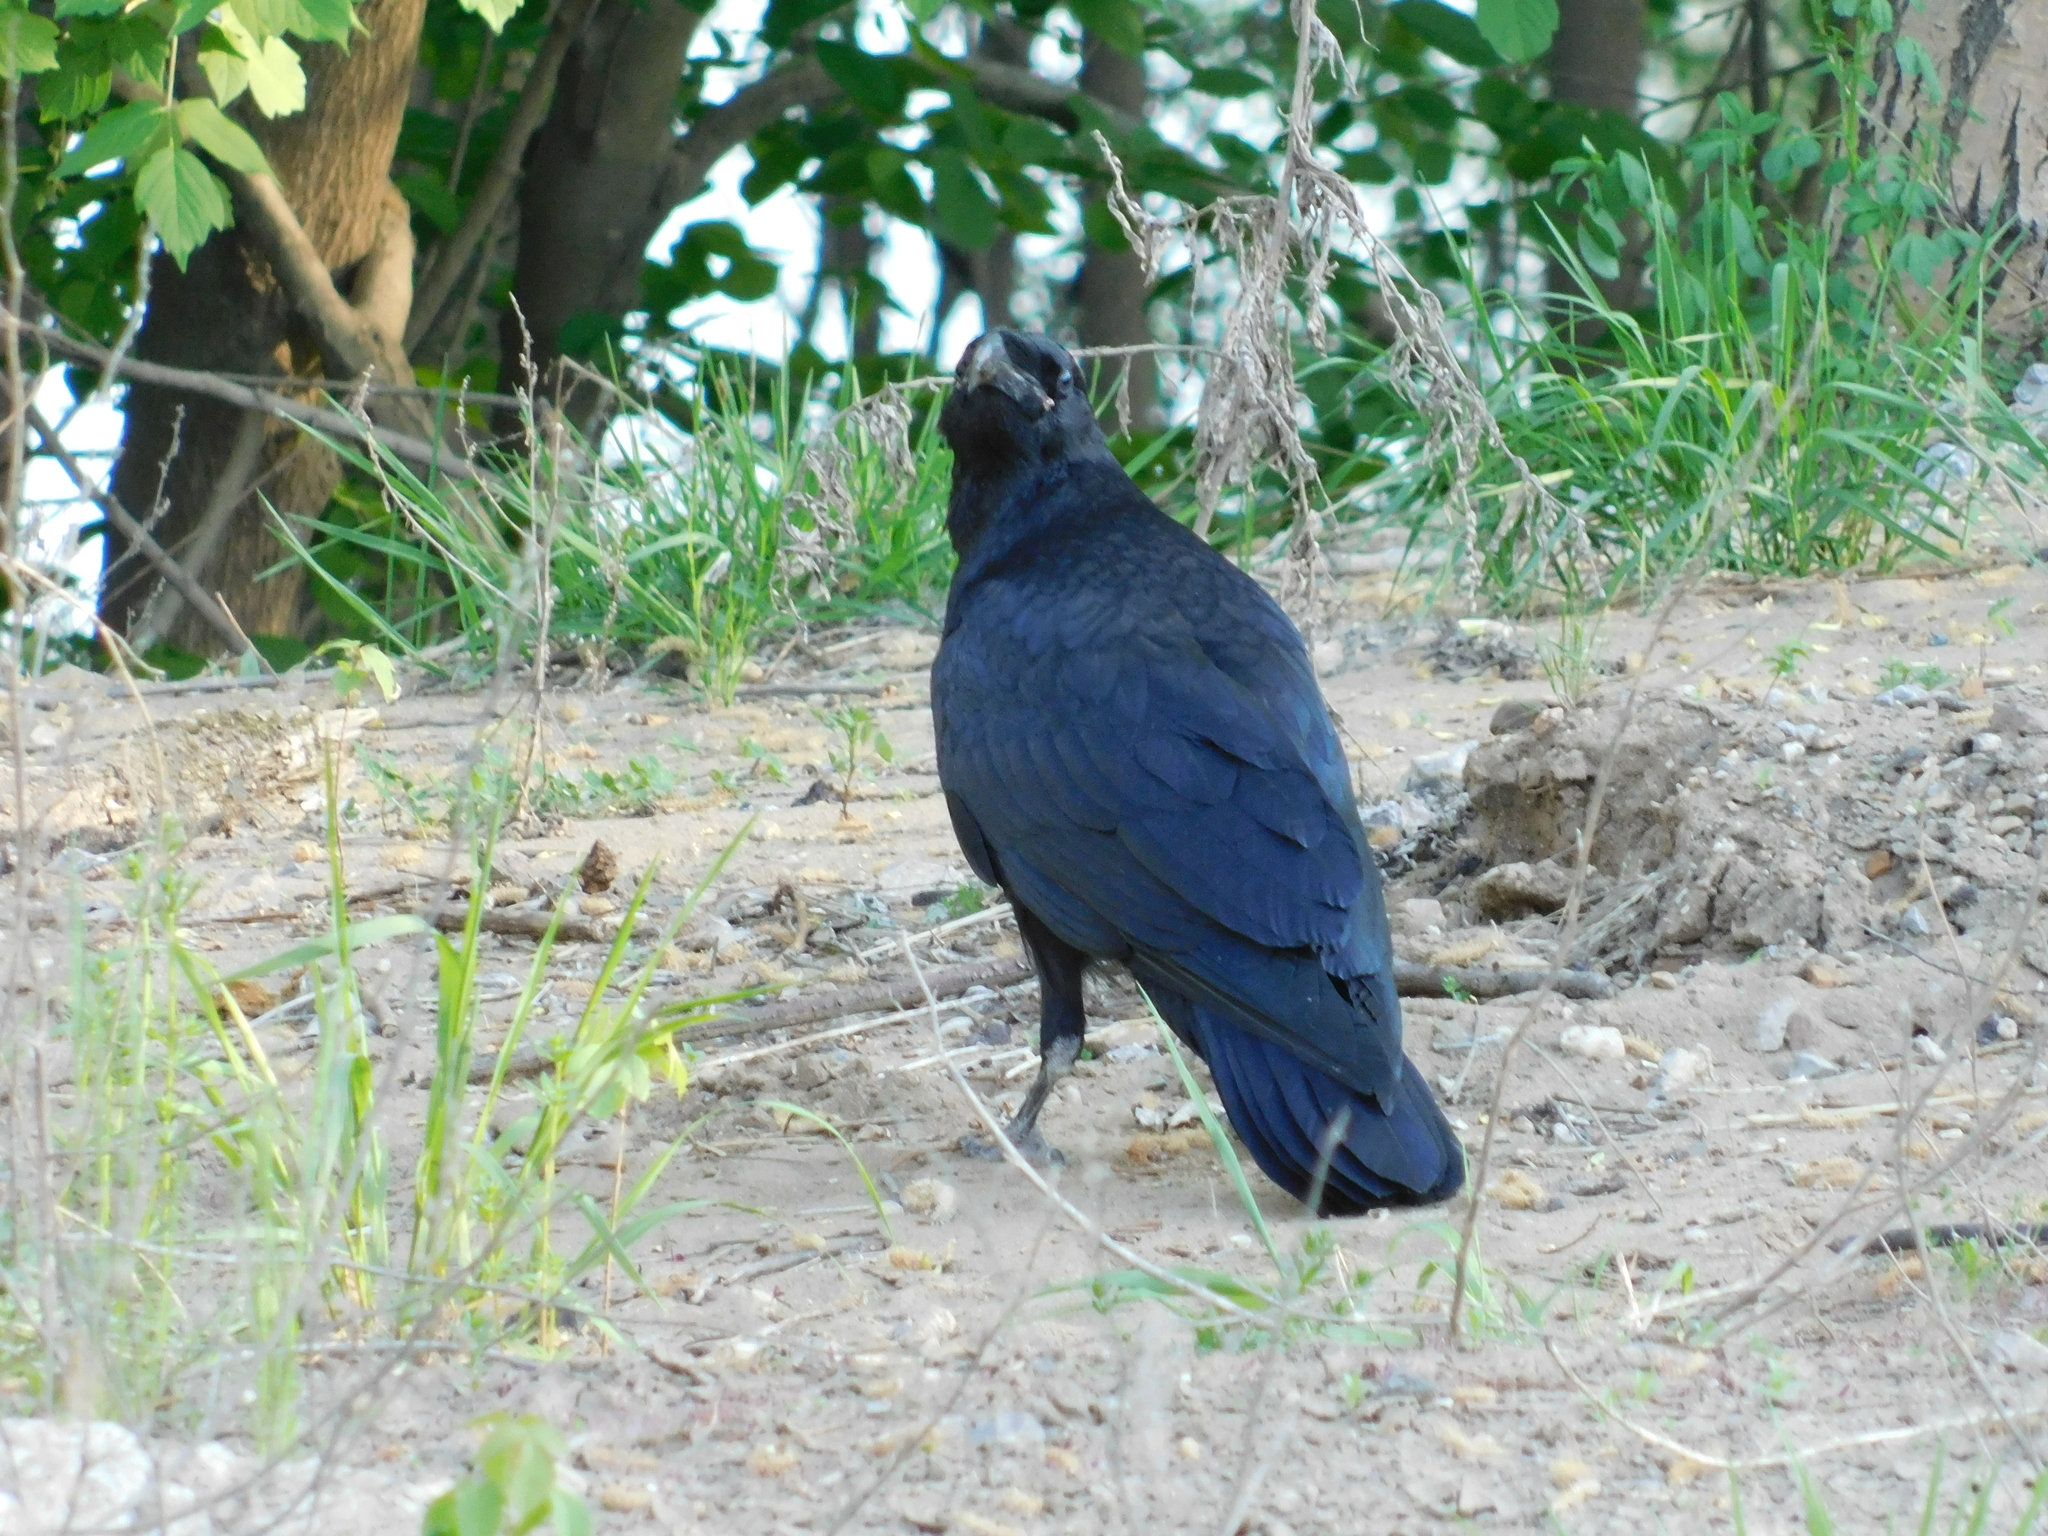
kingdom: Animalia
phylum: Chordata
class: Aves
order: Passeriformes
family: Corvidae
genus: Corvus
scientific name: Corvus corax
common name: Common raven
